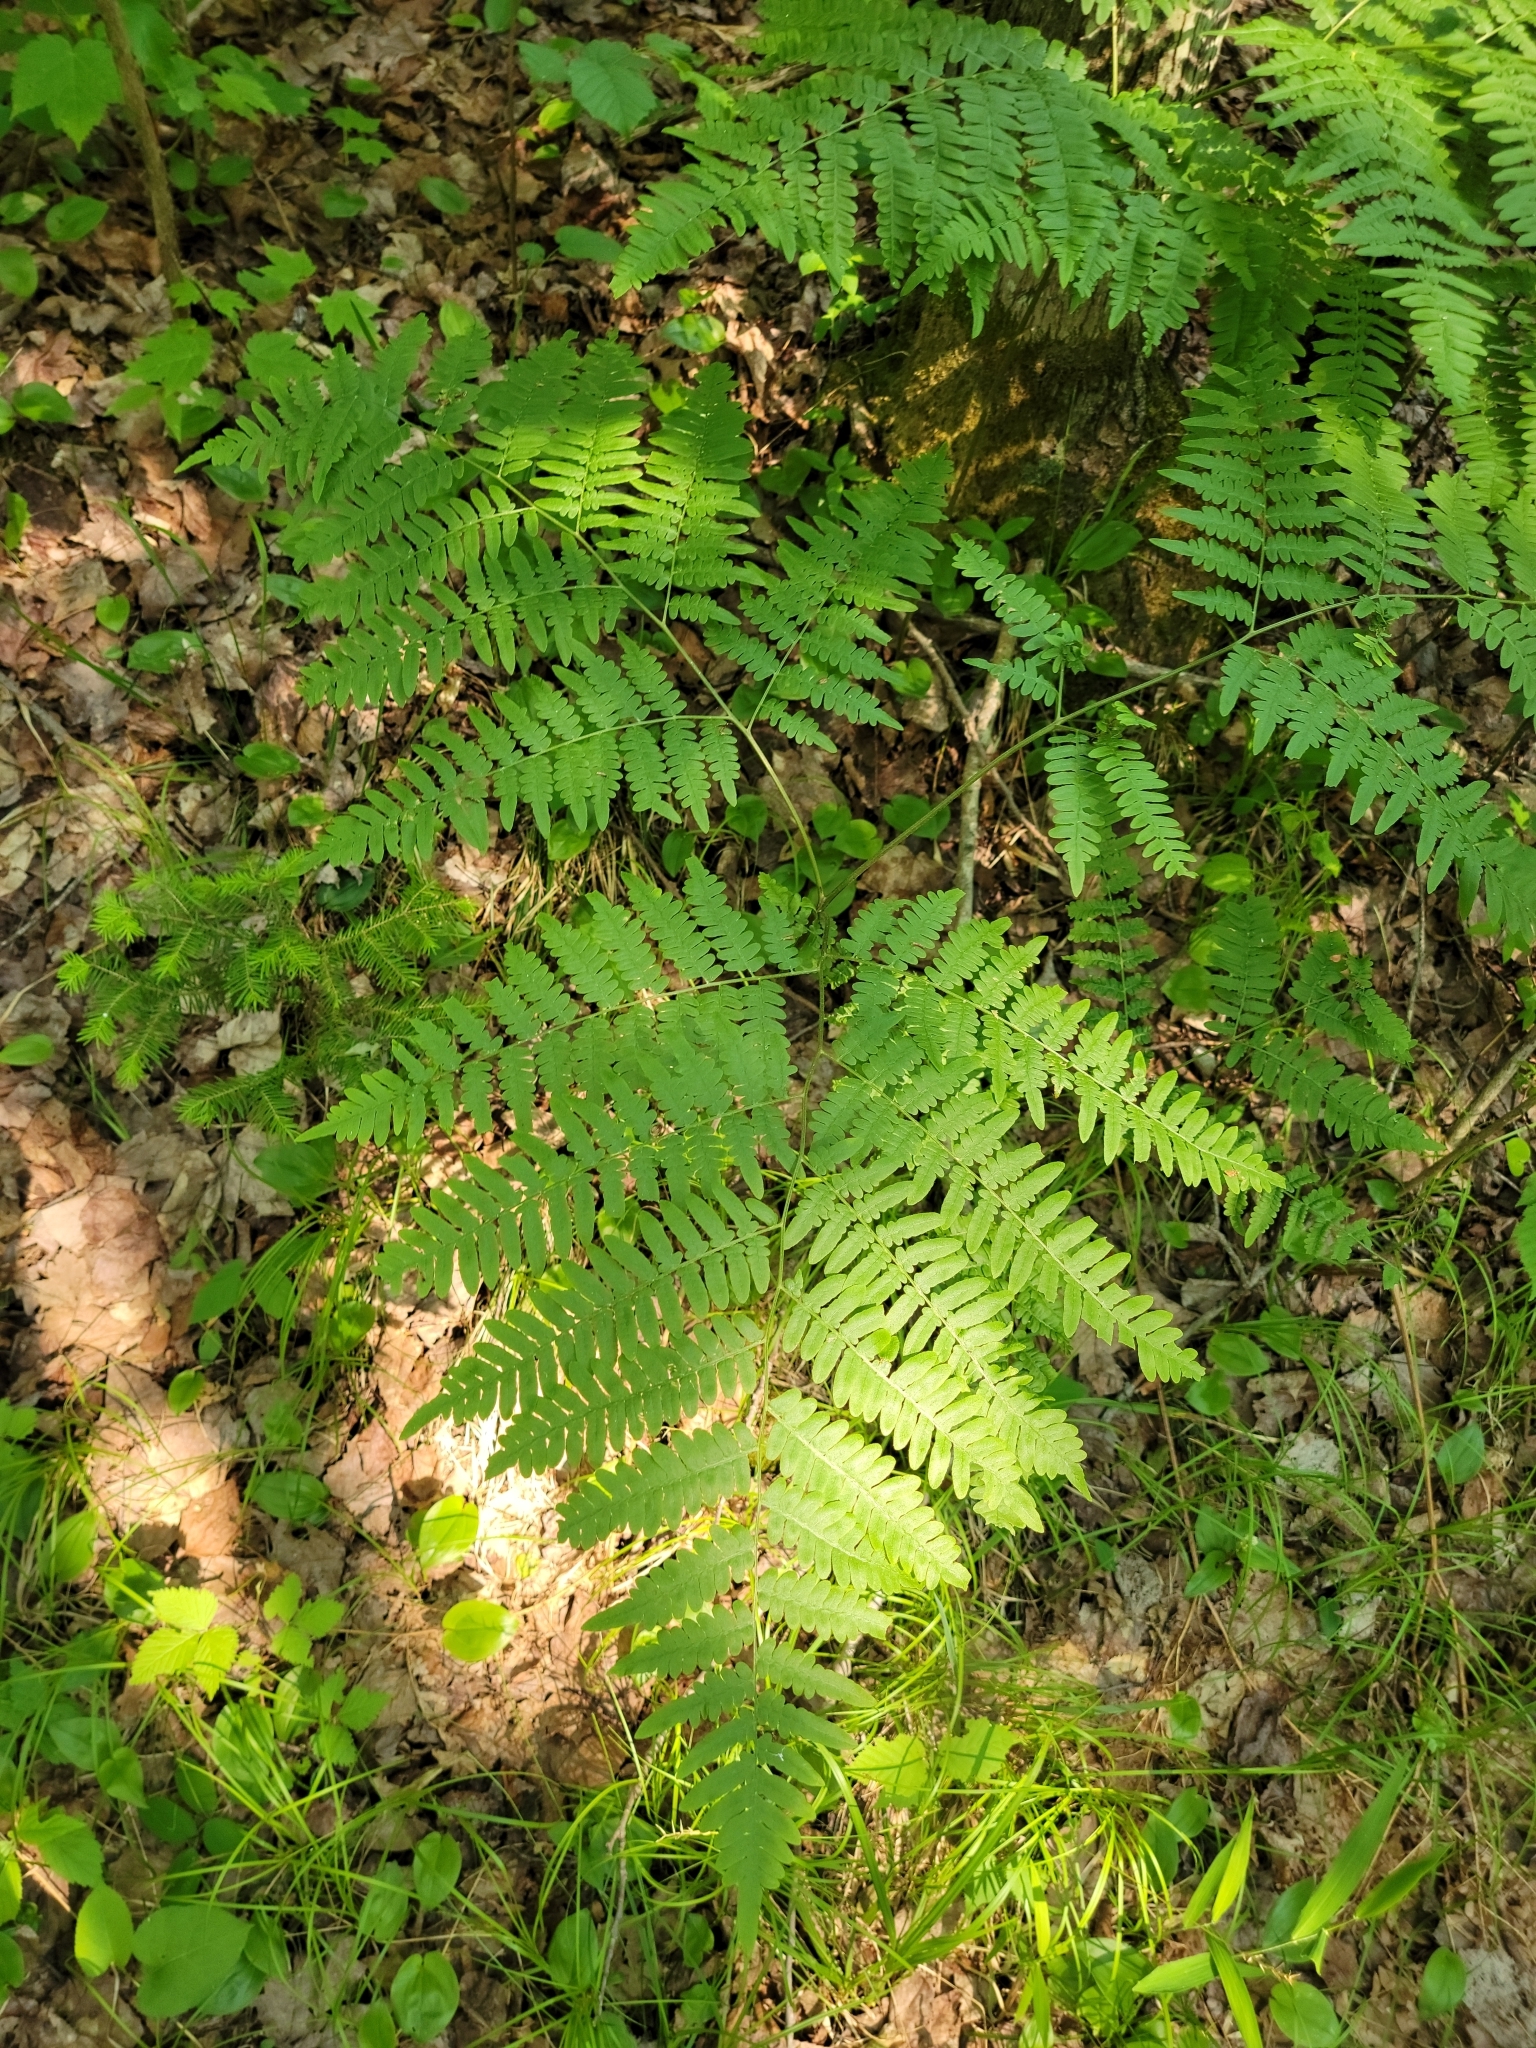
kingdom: Plantae
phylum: Tracheophyta
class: Polypodiopsida
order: Polypodiales
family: Dennstaedtiaceae
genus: Pteridium
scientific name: Pteridium aquilinum
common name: Bracken
